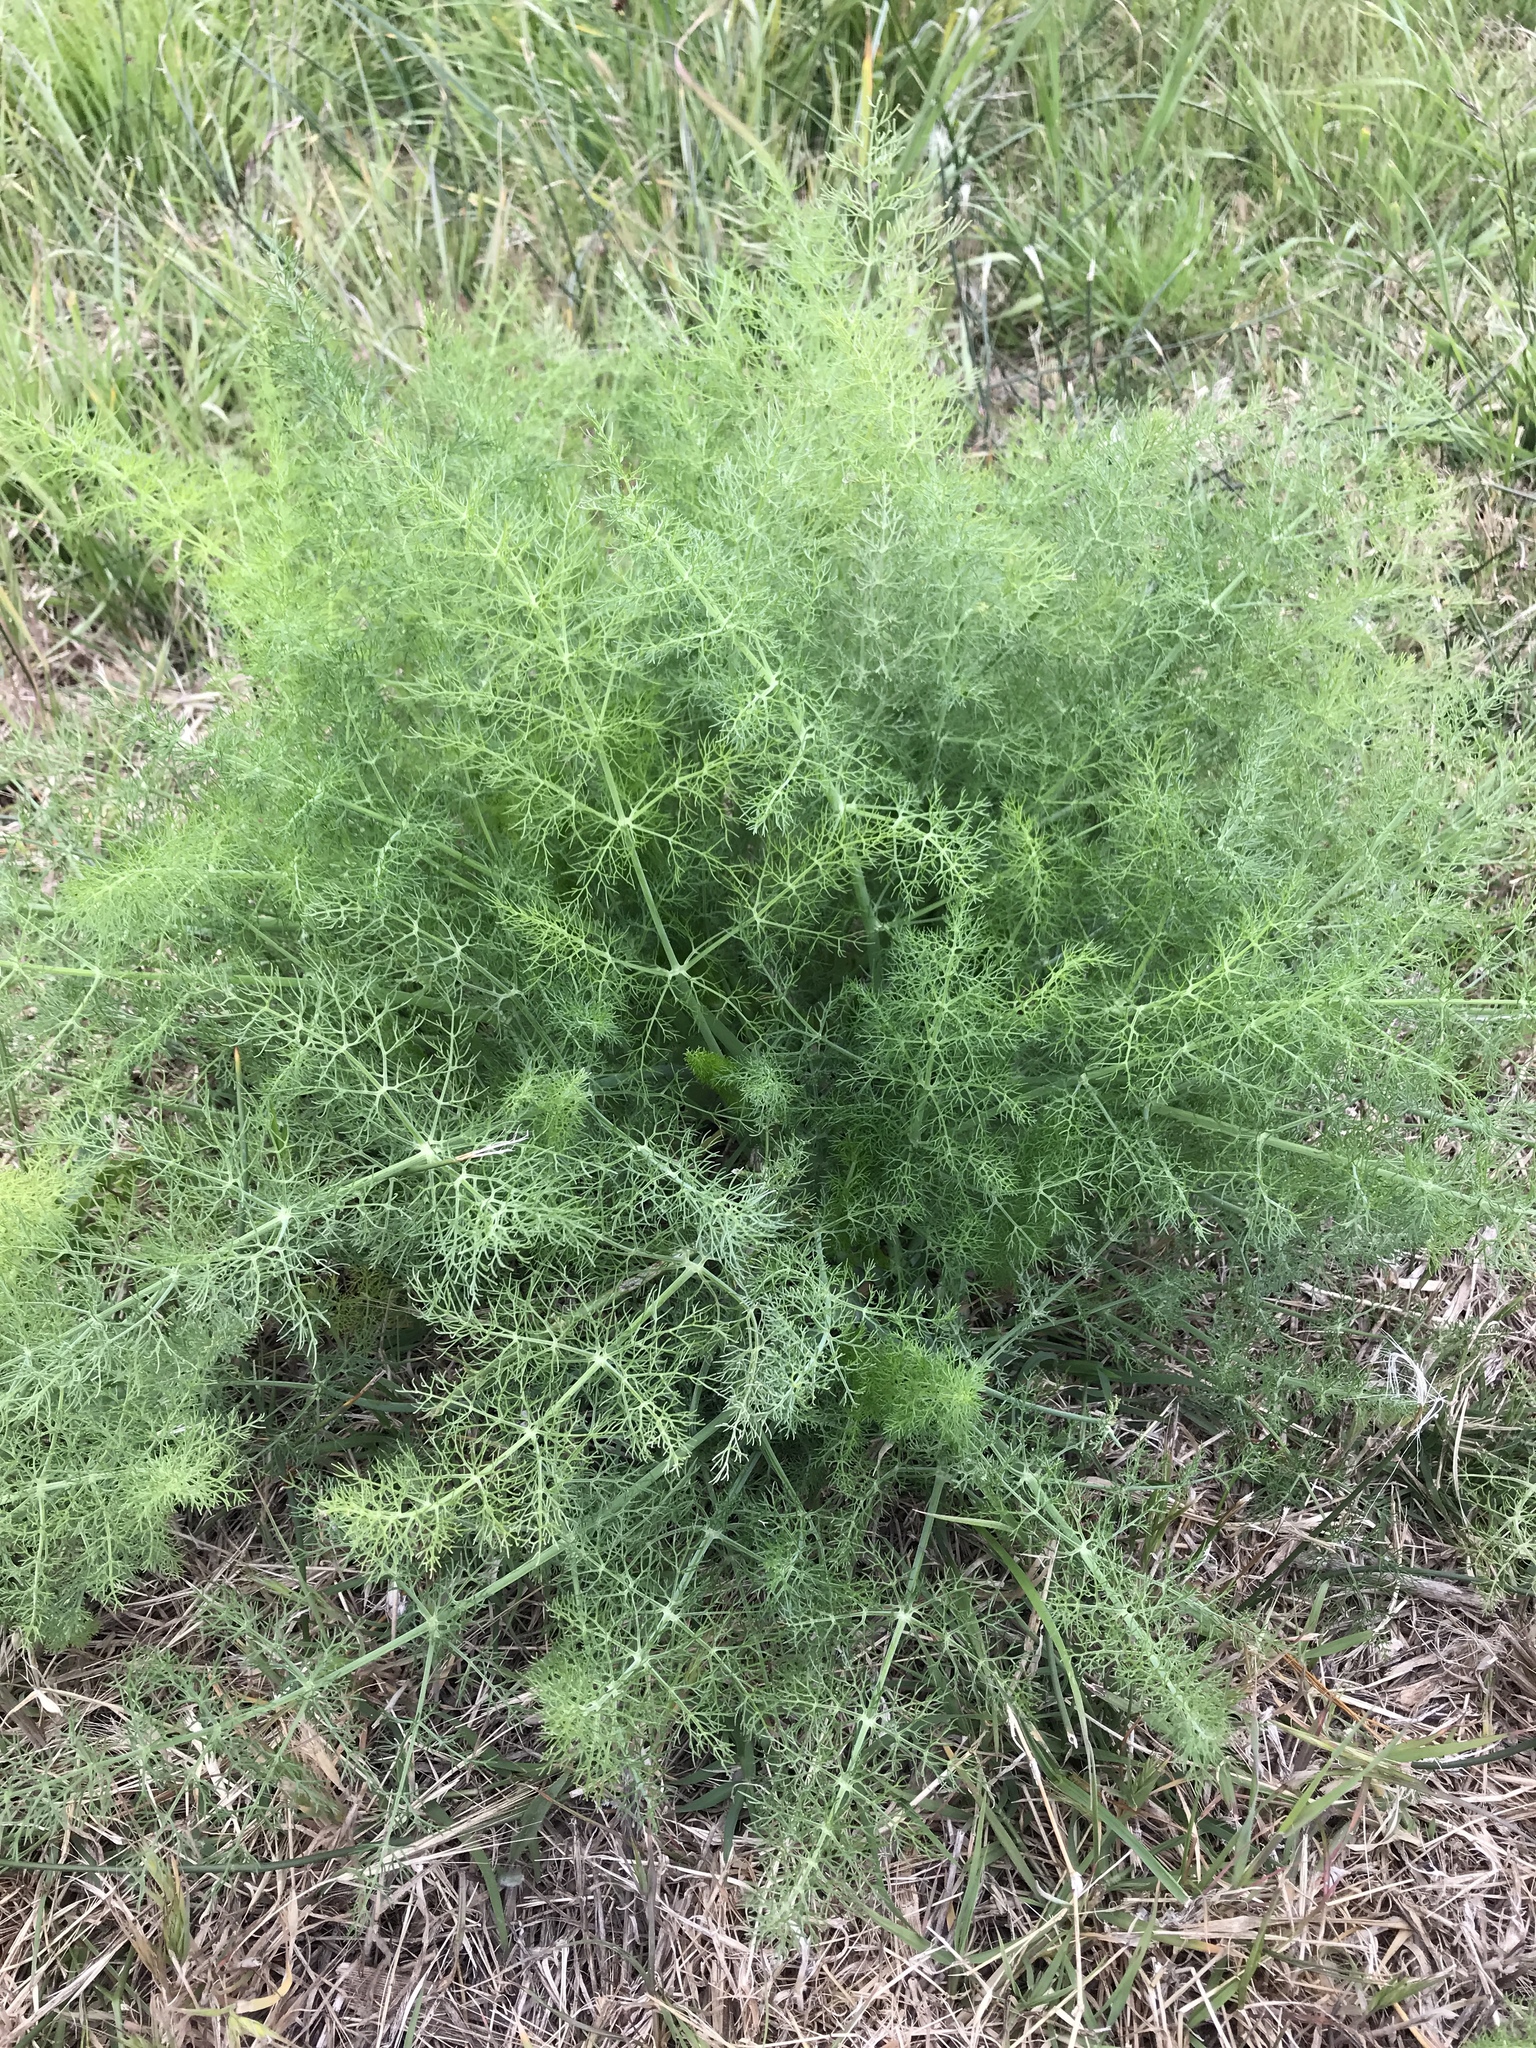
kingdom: Plantae
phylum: Tracheophyta
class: Magnoliopsida
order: Apiales
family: Apiaceae
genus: Foeniculum
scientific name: Foeniculum vulgare
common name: Fennel
